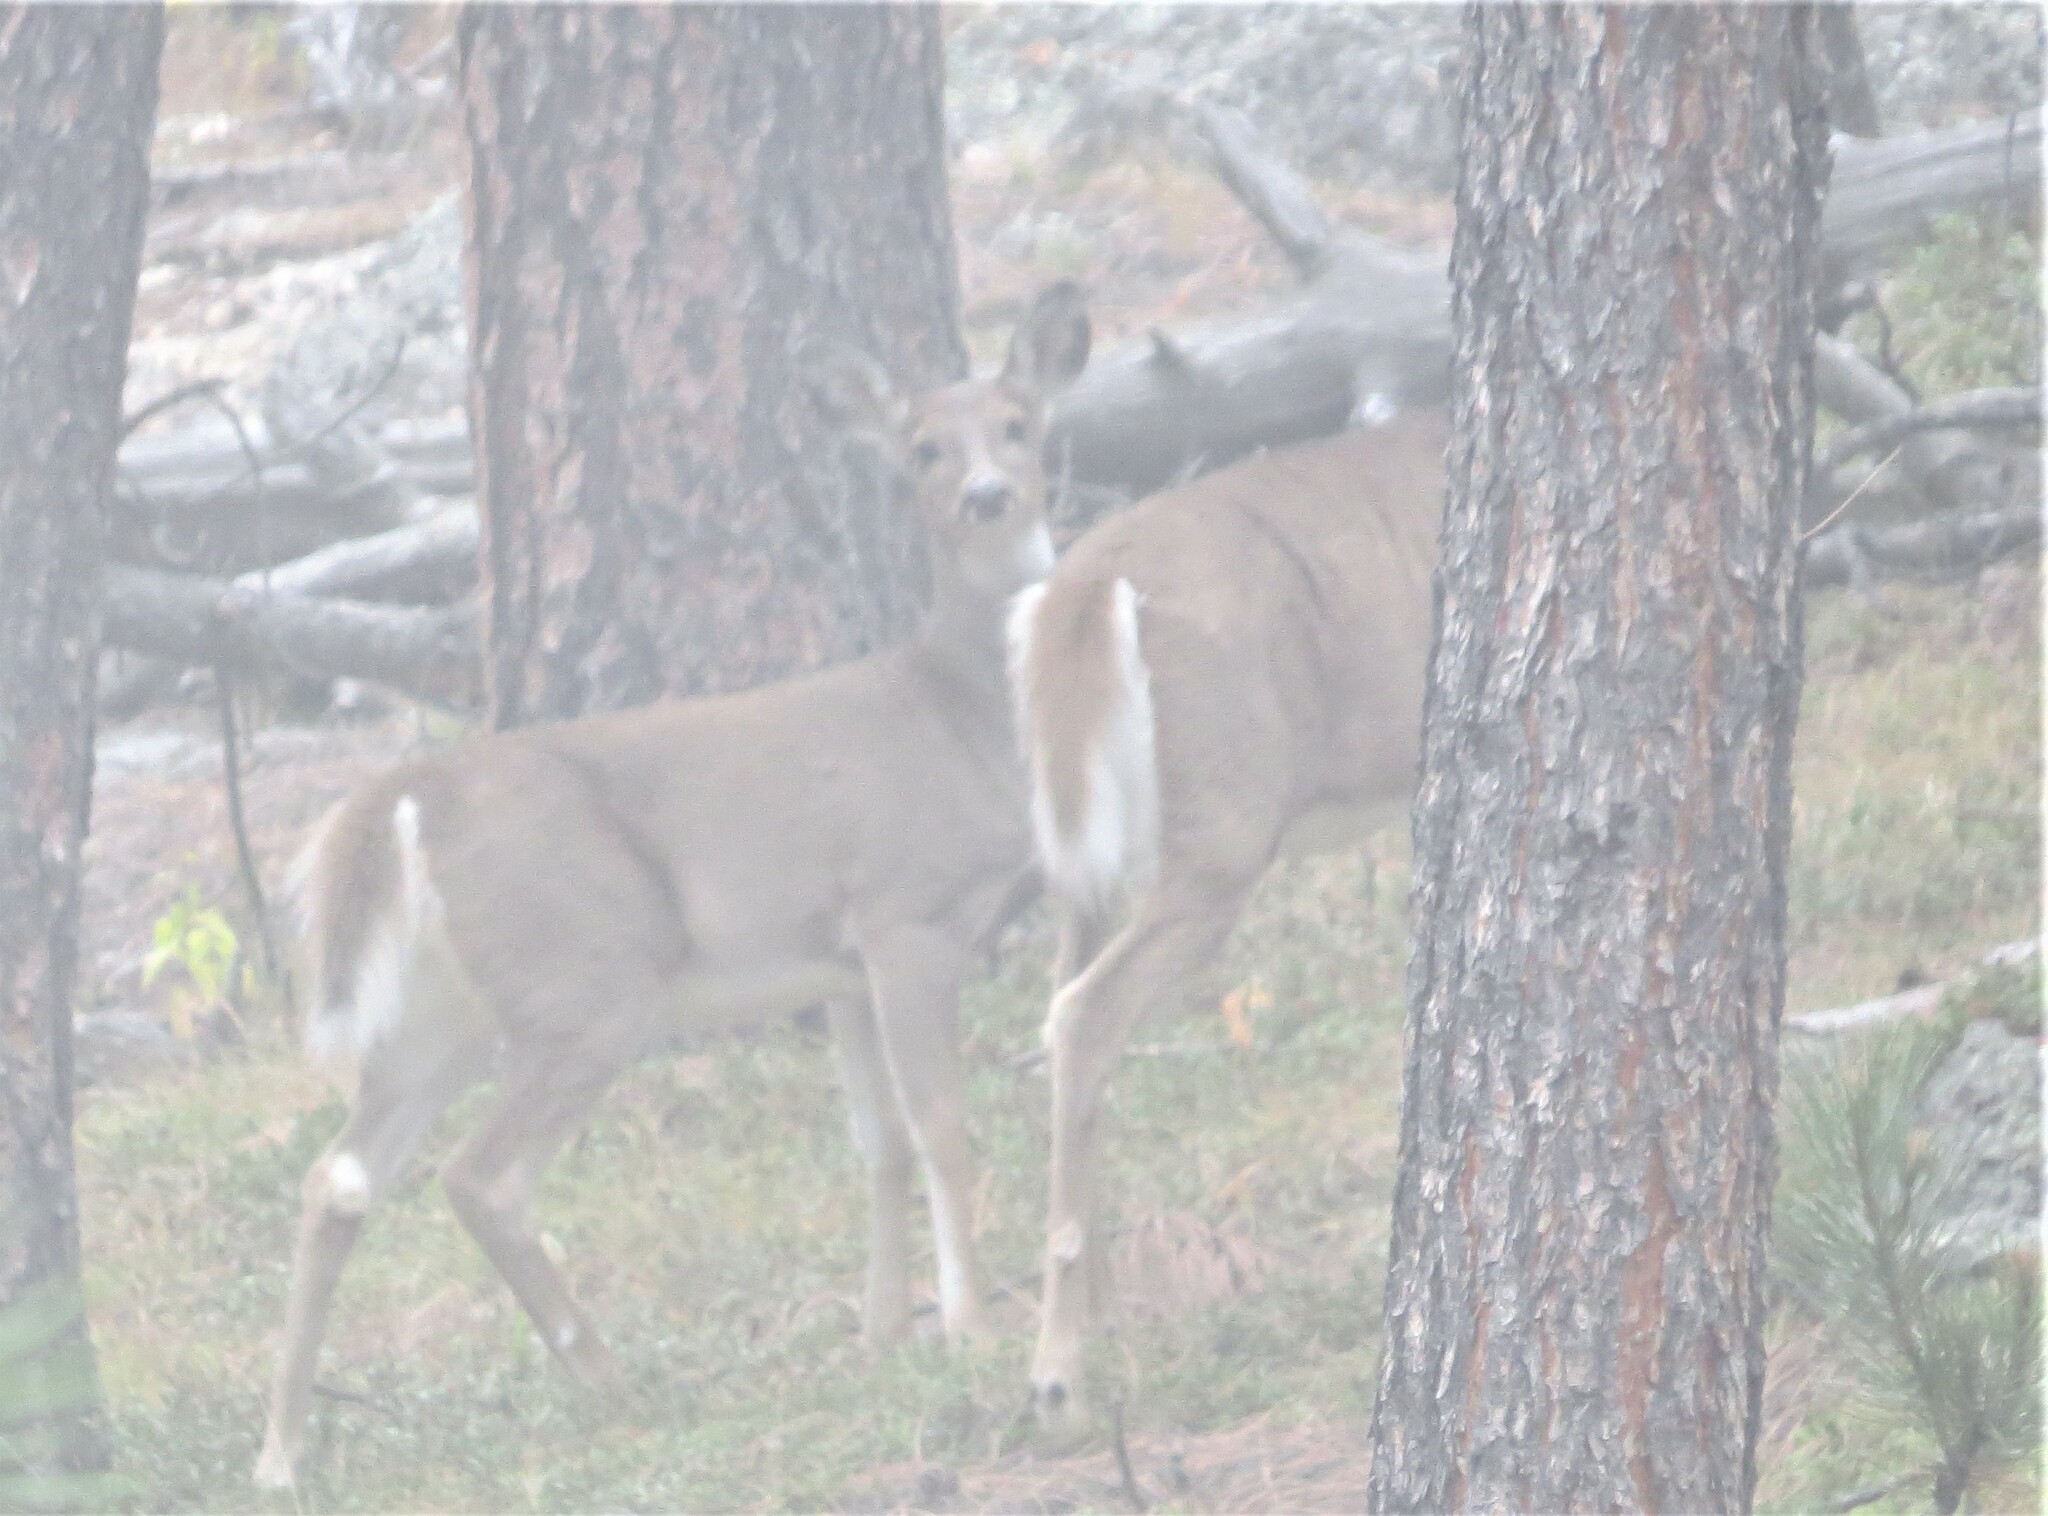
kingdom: Animalia
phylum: Chordata
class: Mammalia
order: Artiodactyla
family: Cervidae
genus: Odocoileus
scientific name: Odocoileus virginianus
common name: White-tailed deer
